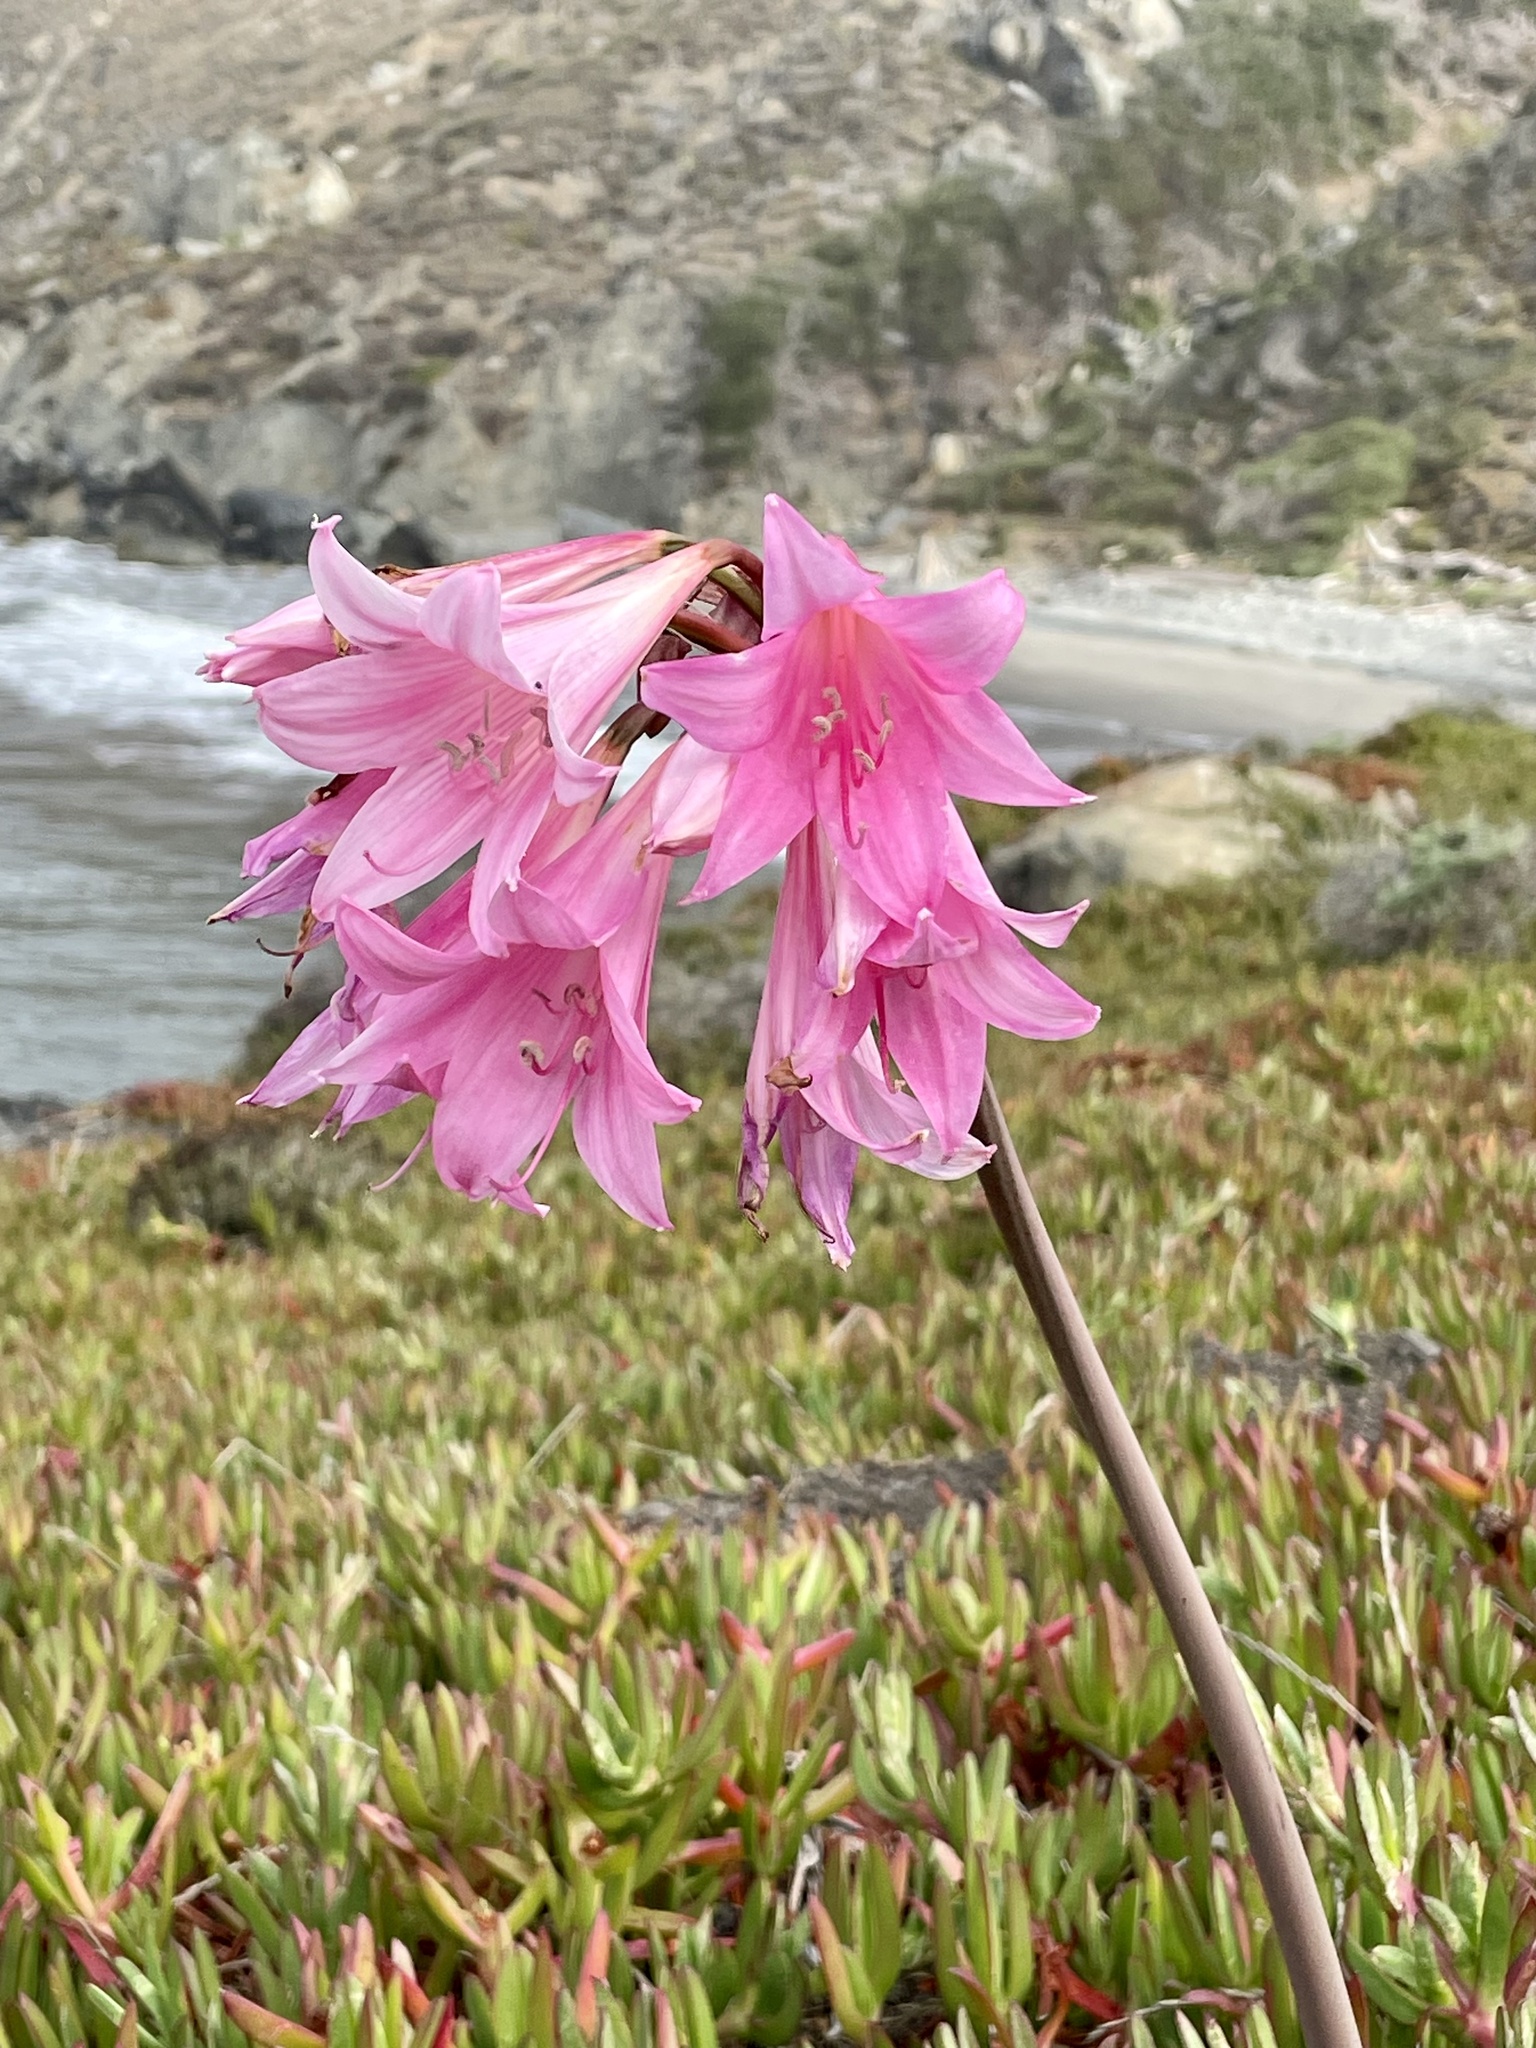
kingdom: Plantae
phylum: Tracheophyta
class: Liliopsida
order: Asparagales
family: Amaryllidaceae
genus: Amaryllis
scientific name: Amaryllis belladonna
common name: Jersey lily
